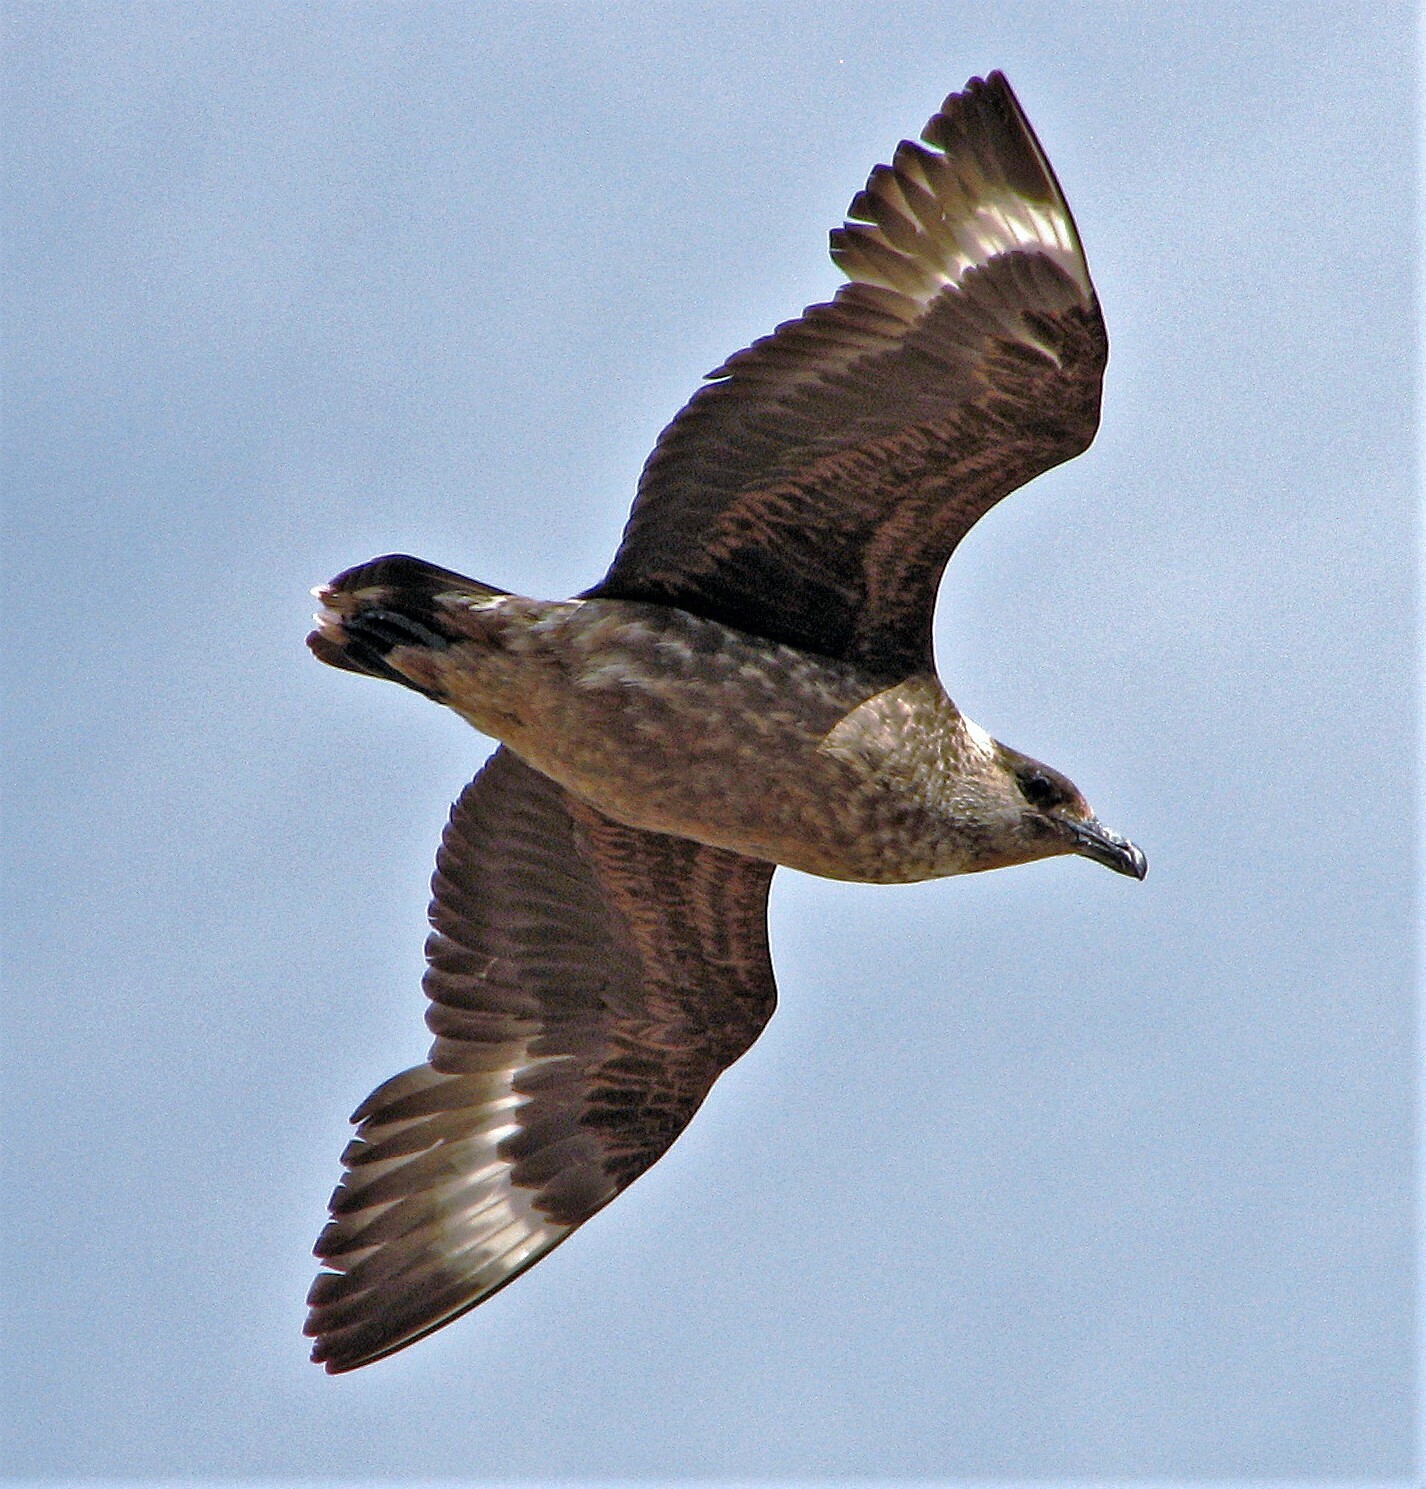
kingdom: Animalia
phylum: Chordata
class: Aves
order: Charadriiformes
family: Stercorariidae
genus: Stercorarius
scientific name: Stercorarius chilensis
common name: Chilean skua
